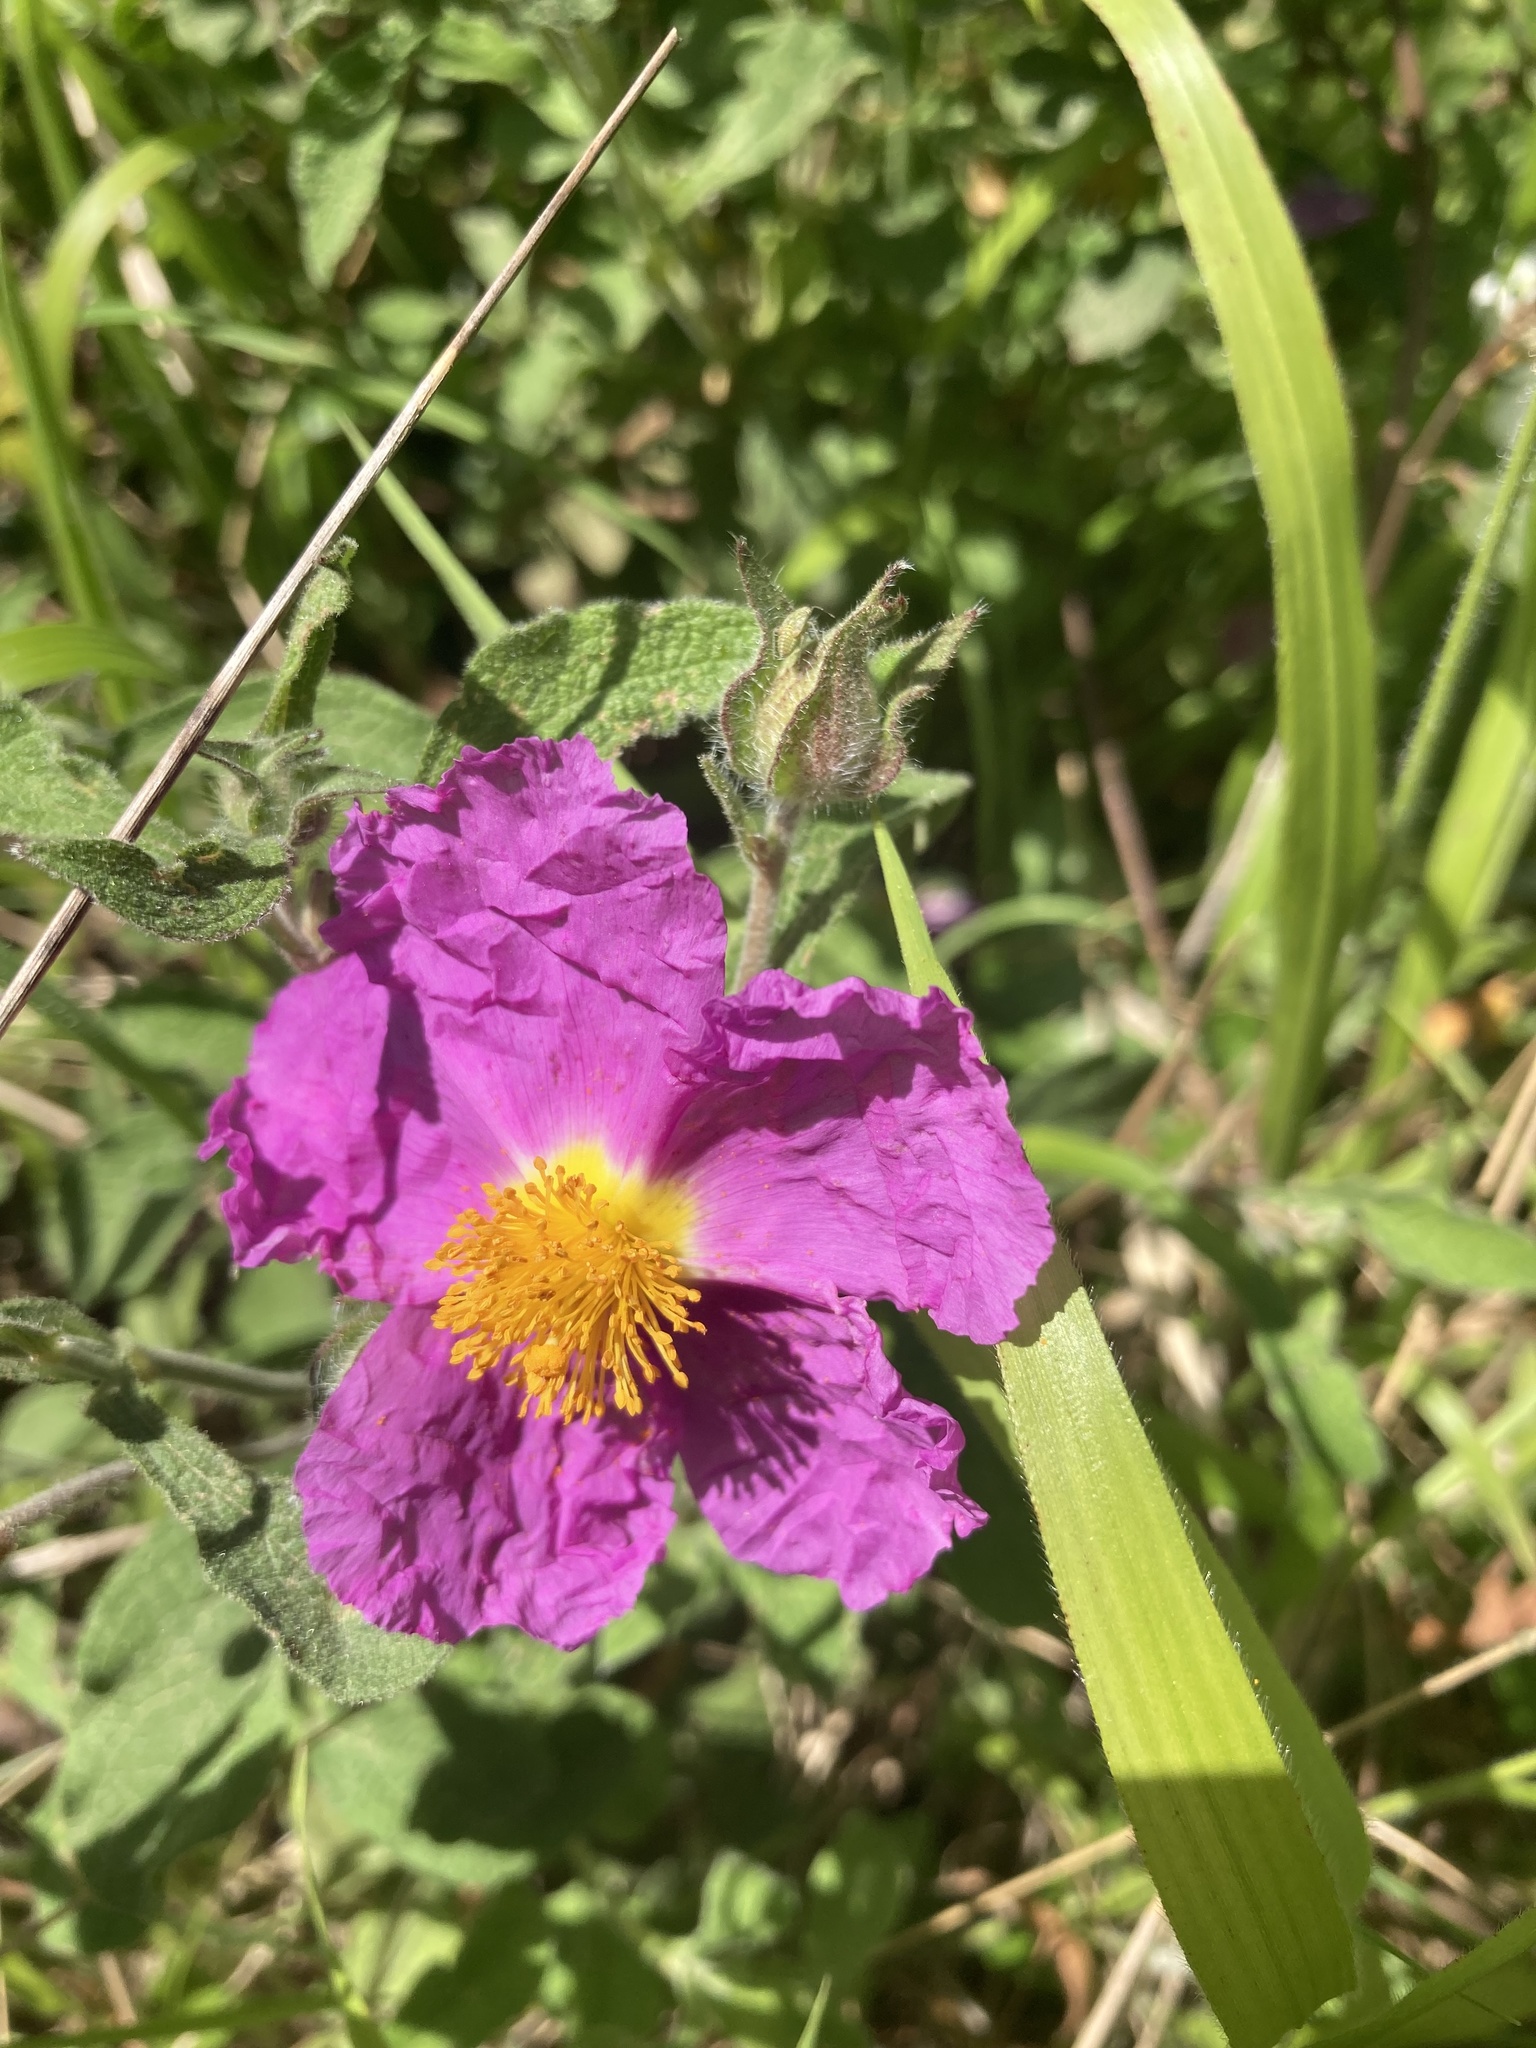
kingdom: Plantae
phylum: Tracheophyta
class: Magnoliopsida
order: Malvales
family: Cistaceae
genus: Cistus
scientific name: Cistus creticus
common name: Cretan rockrose
